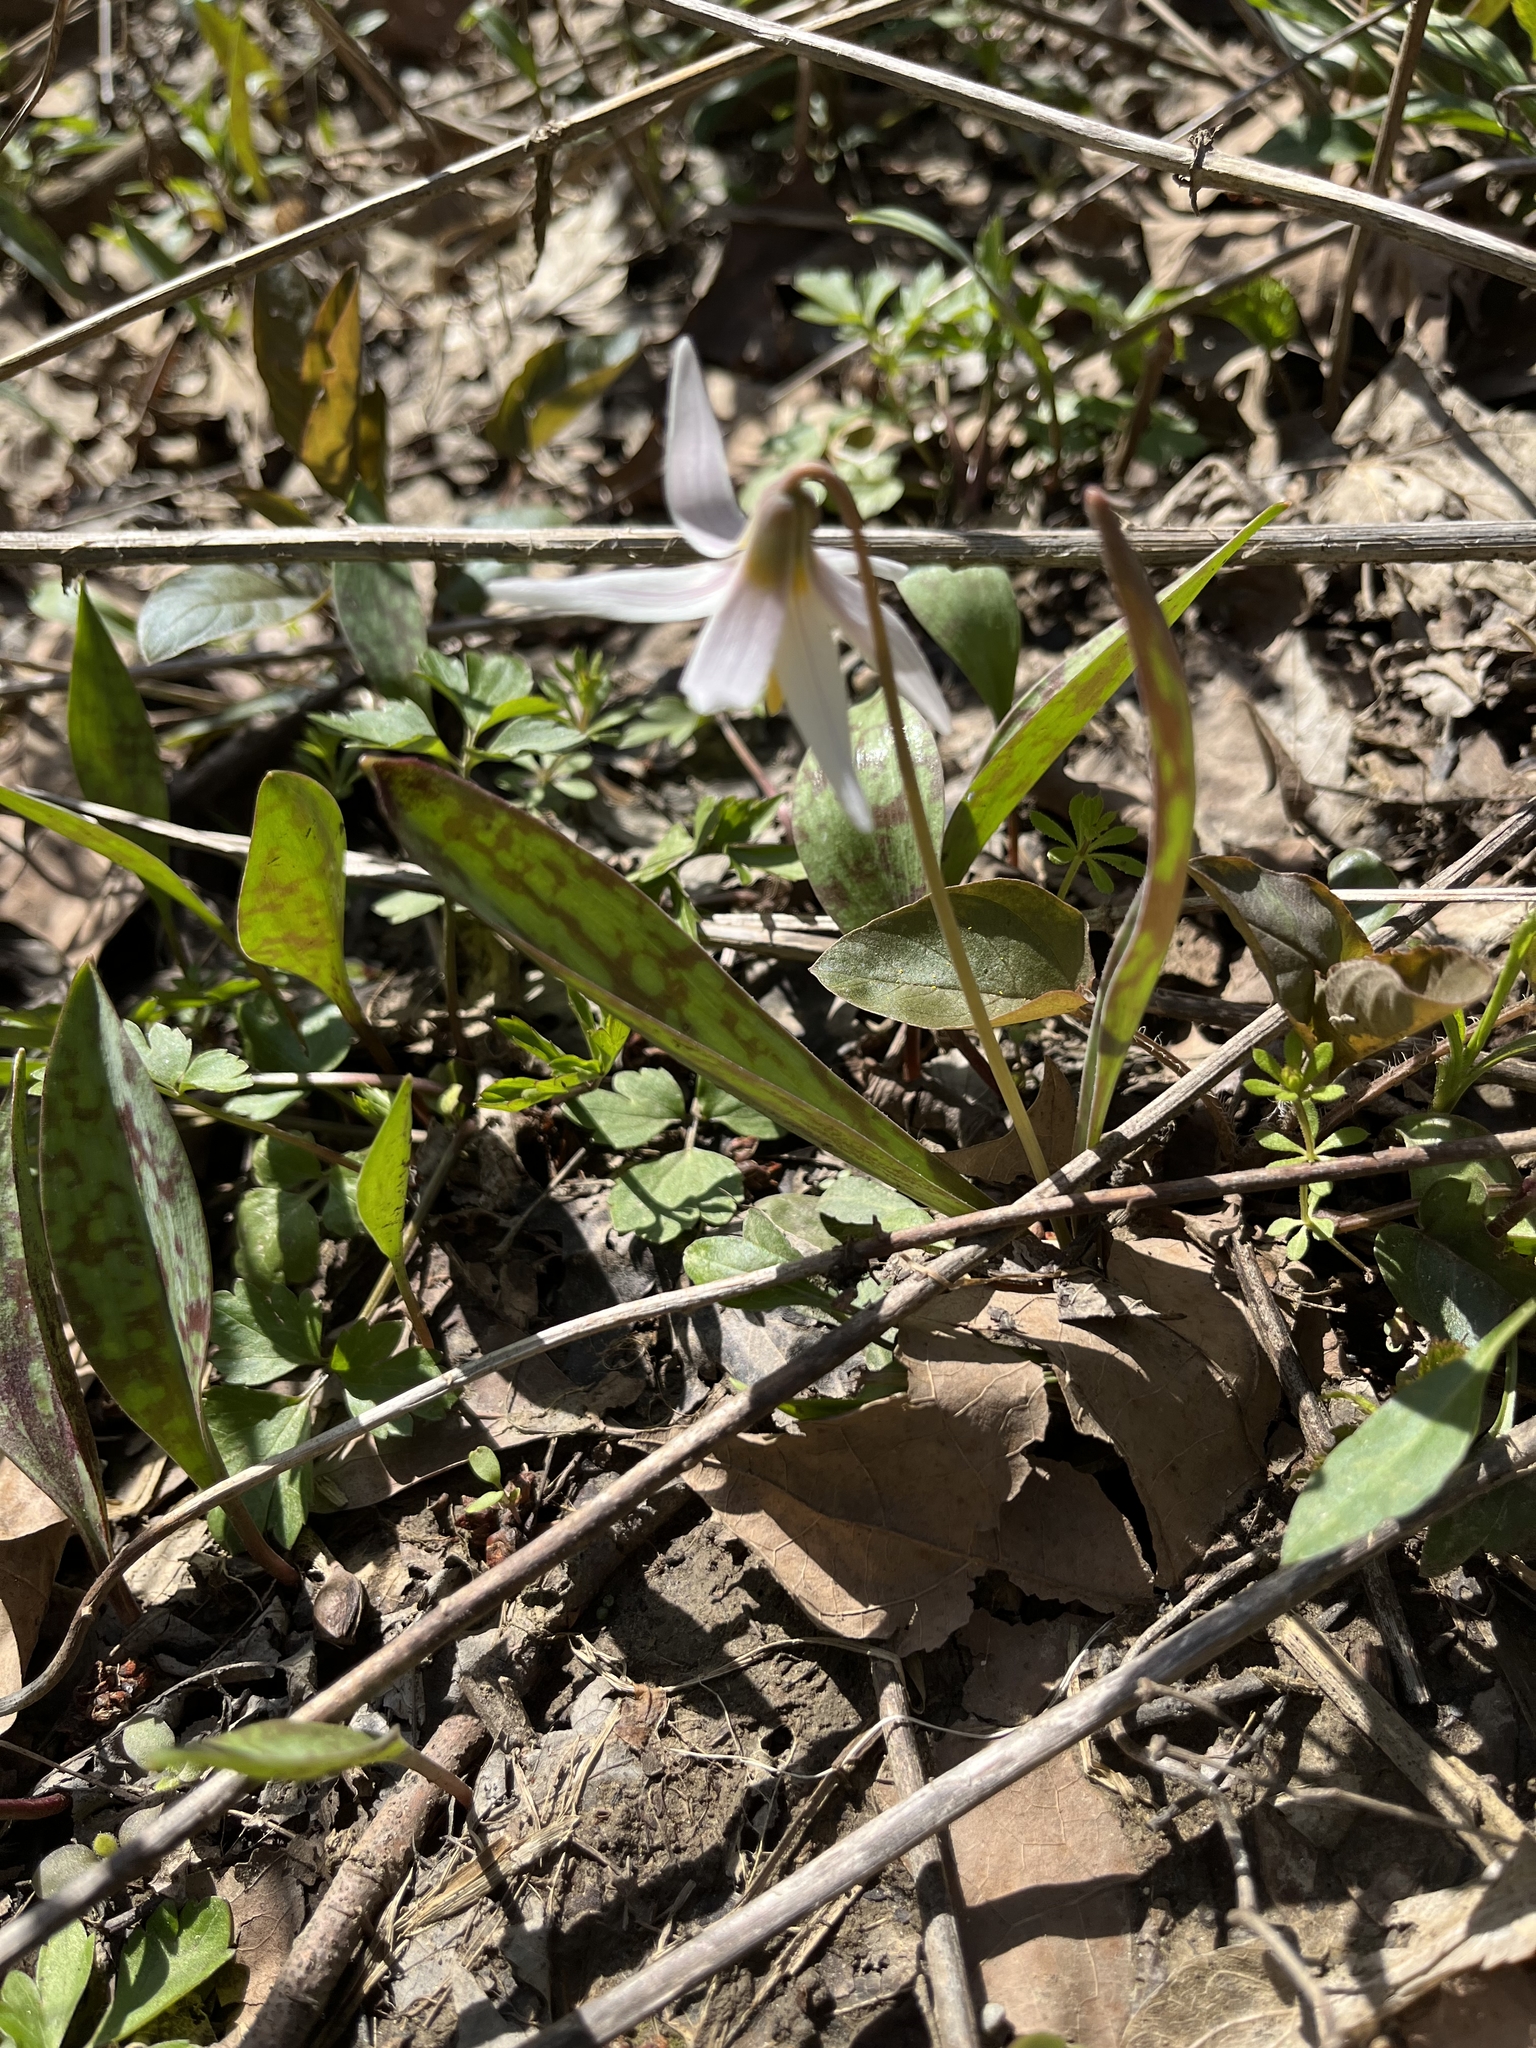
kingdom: Plantae
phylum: Tracheophyta
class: Liliopsida
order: Liliales
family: Liliaceae
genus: Erythronium
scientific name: Erythronium albidum
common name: White trout-lily
